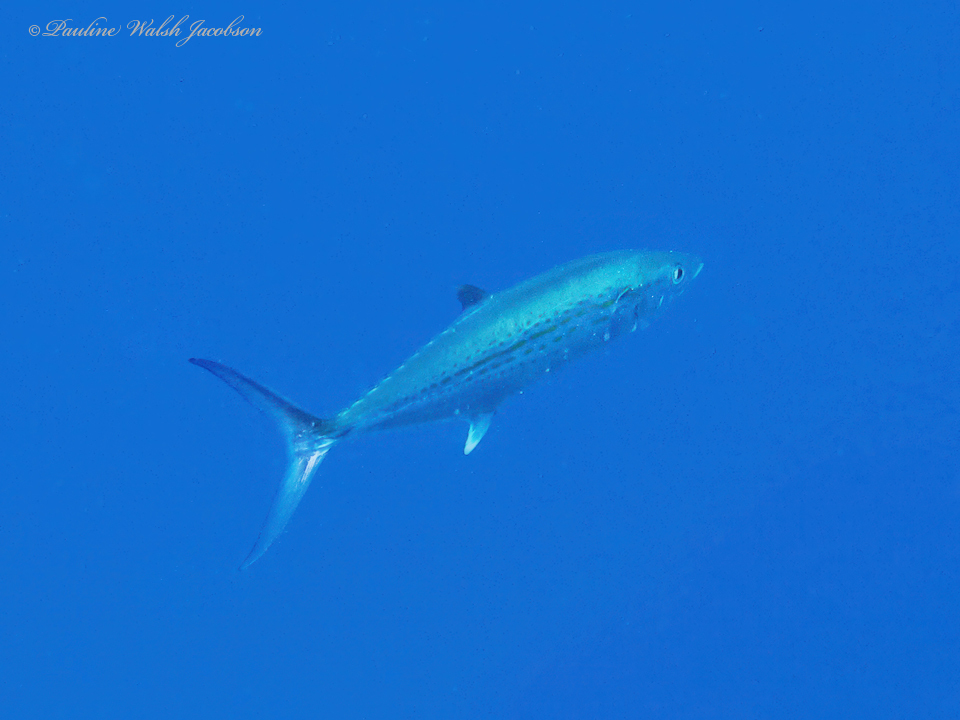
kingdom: Animalia
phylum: Chordata
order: Perciformes
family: Scombridae
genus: Scomberomorus
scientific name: Scomberomorus regalis
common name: Cero
